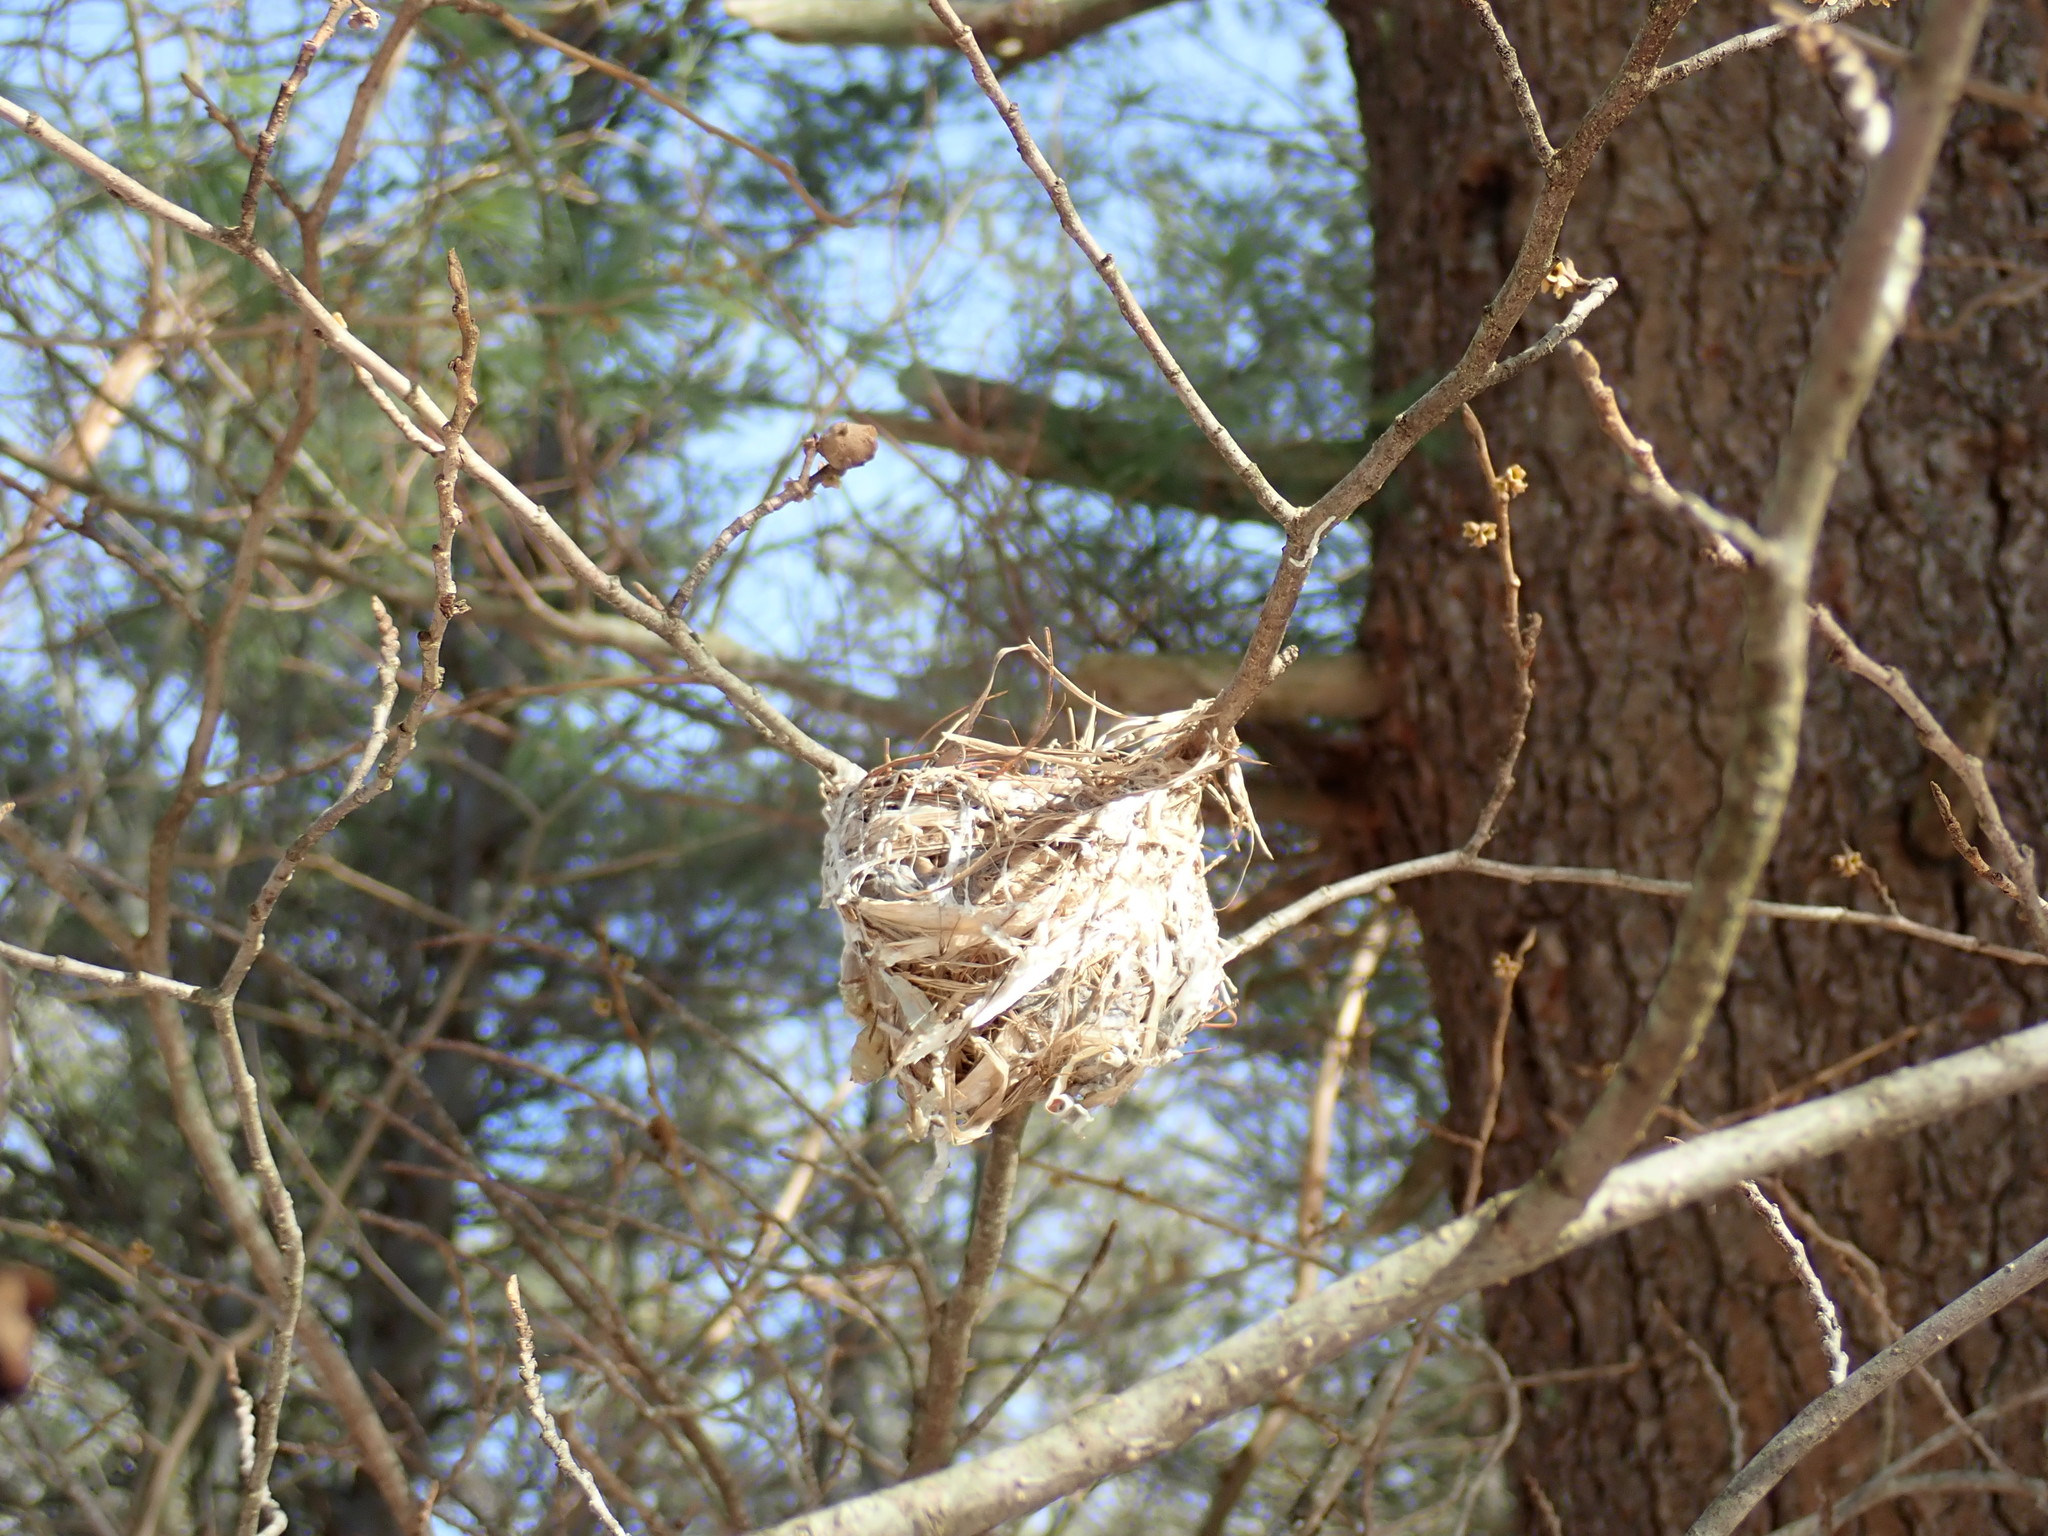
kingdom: Animalia
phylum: Chordata
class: Aves
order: Passeriformes
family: Vireonidae
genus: Vireo
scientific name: Vireo
